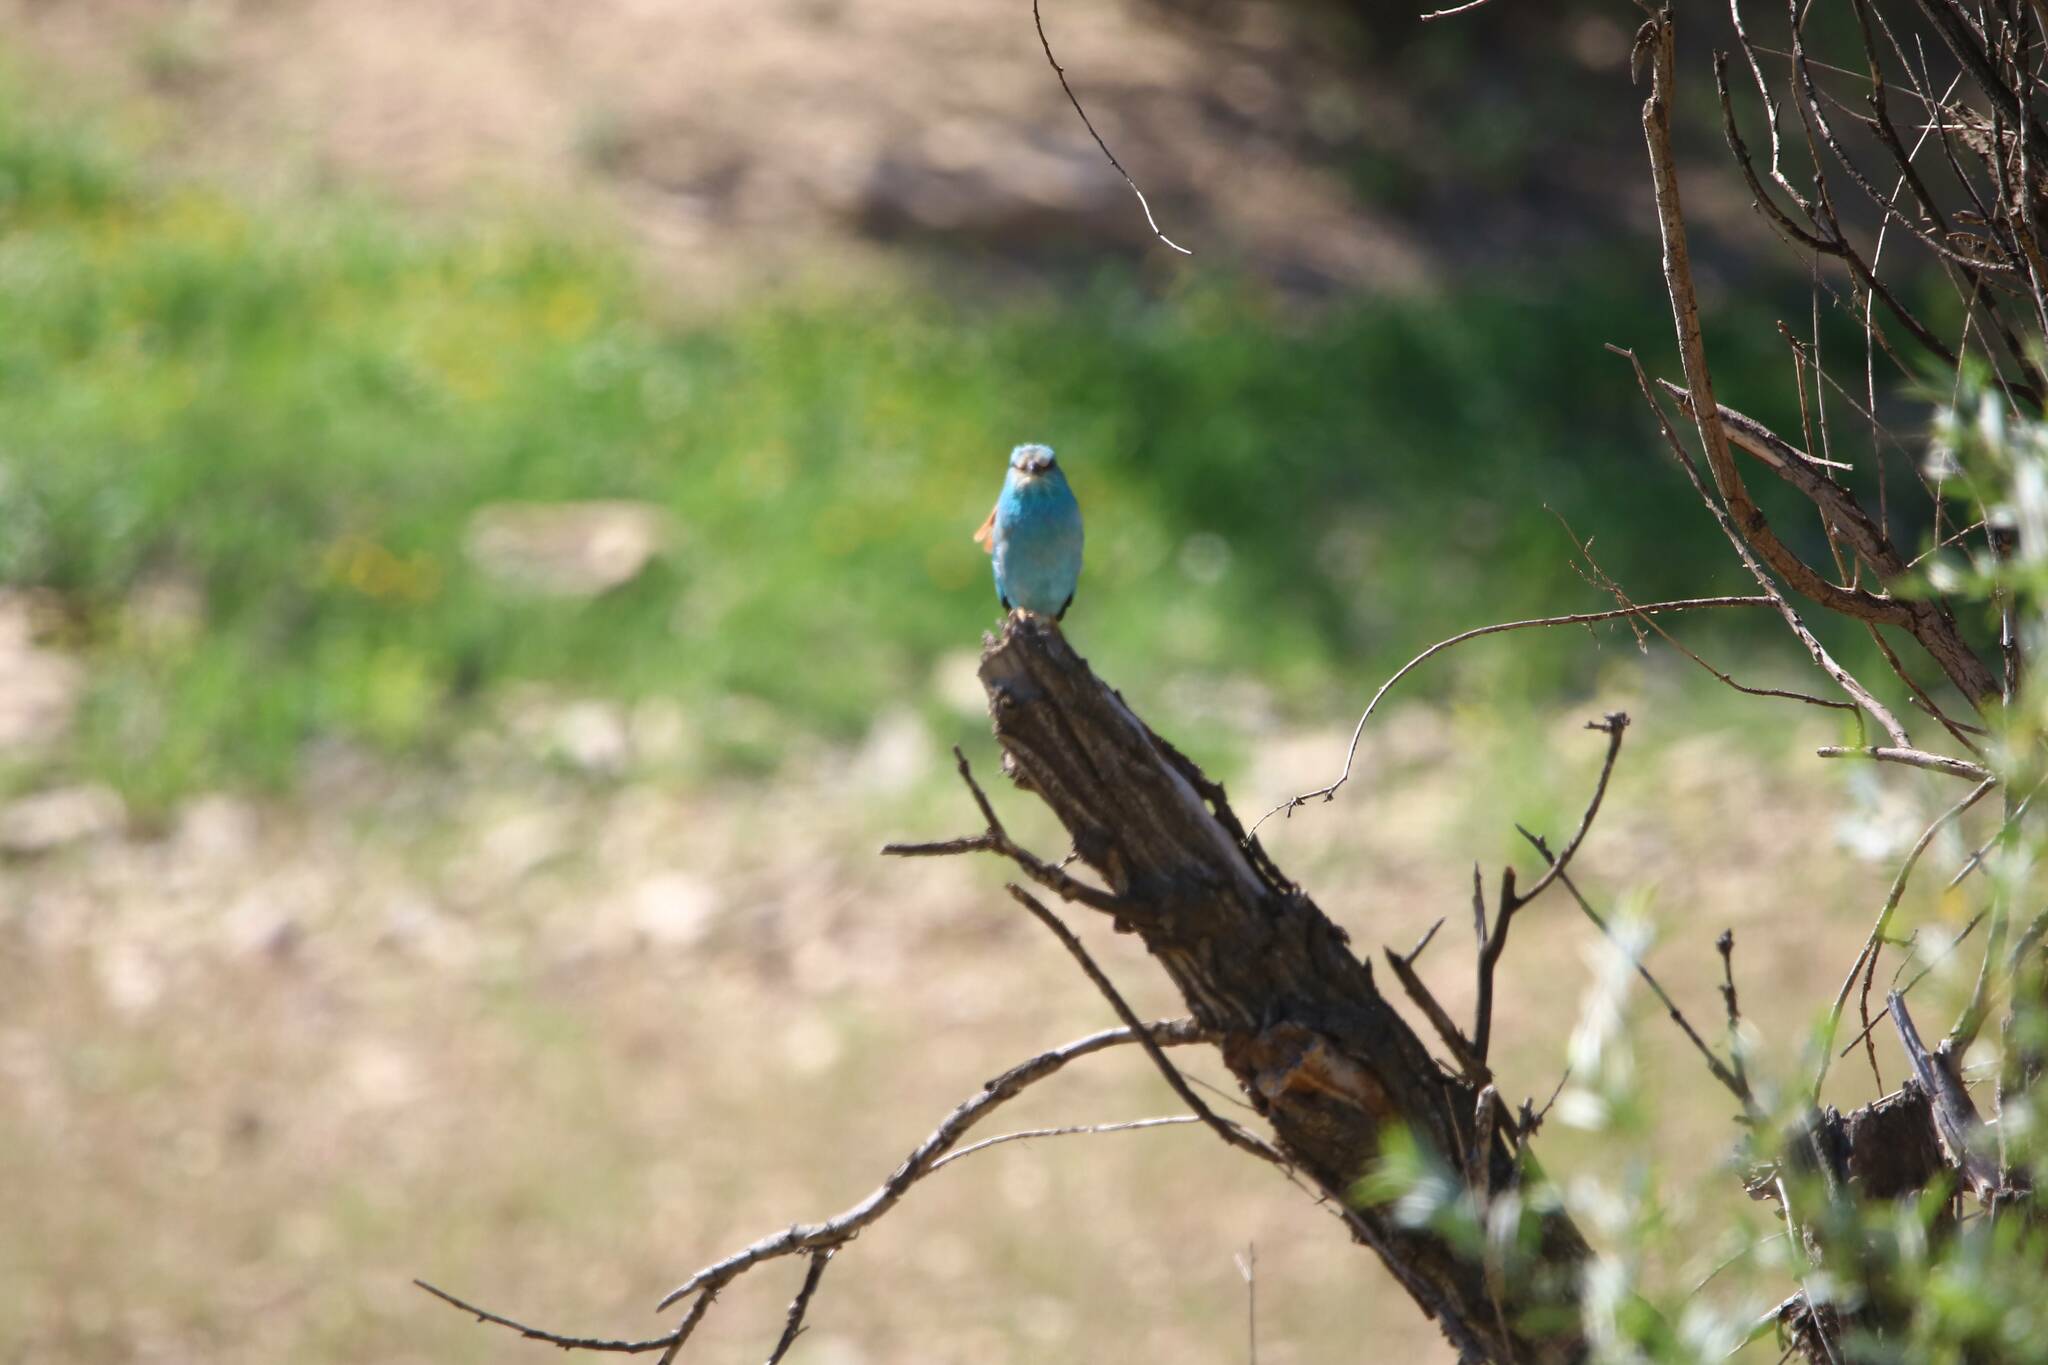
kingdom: Animalia
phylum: Chordata
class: Aves
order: Coraciiformes
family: Coraciidae
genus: Coracias
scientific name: Coracias garrulus
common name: European roller
